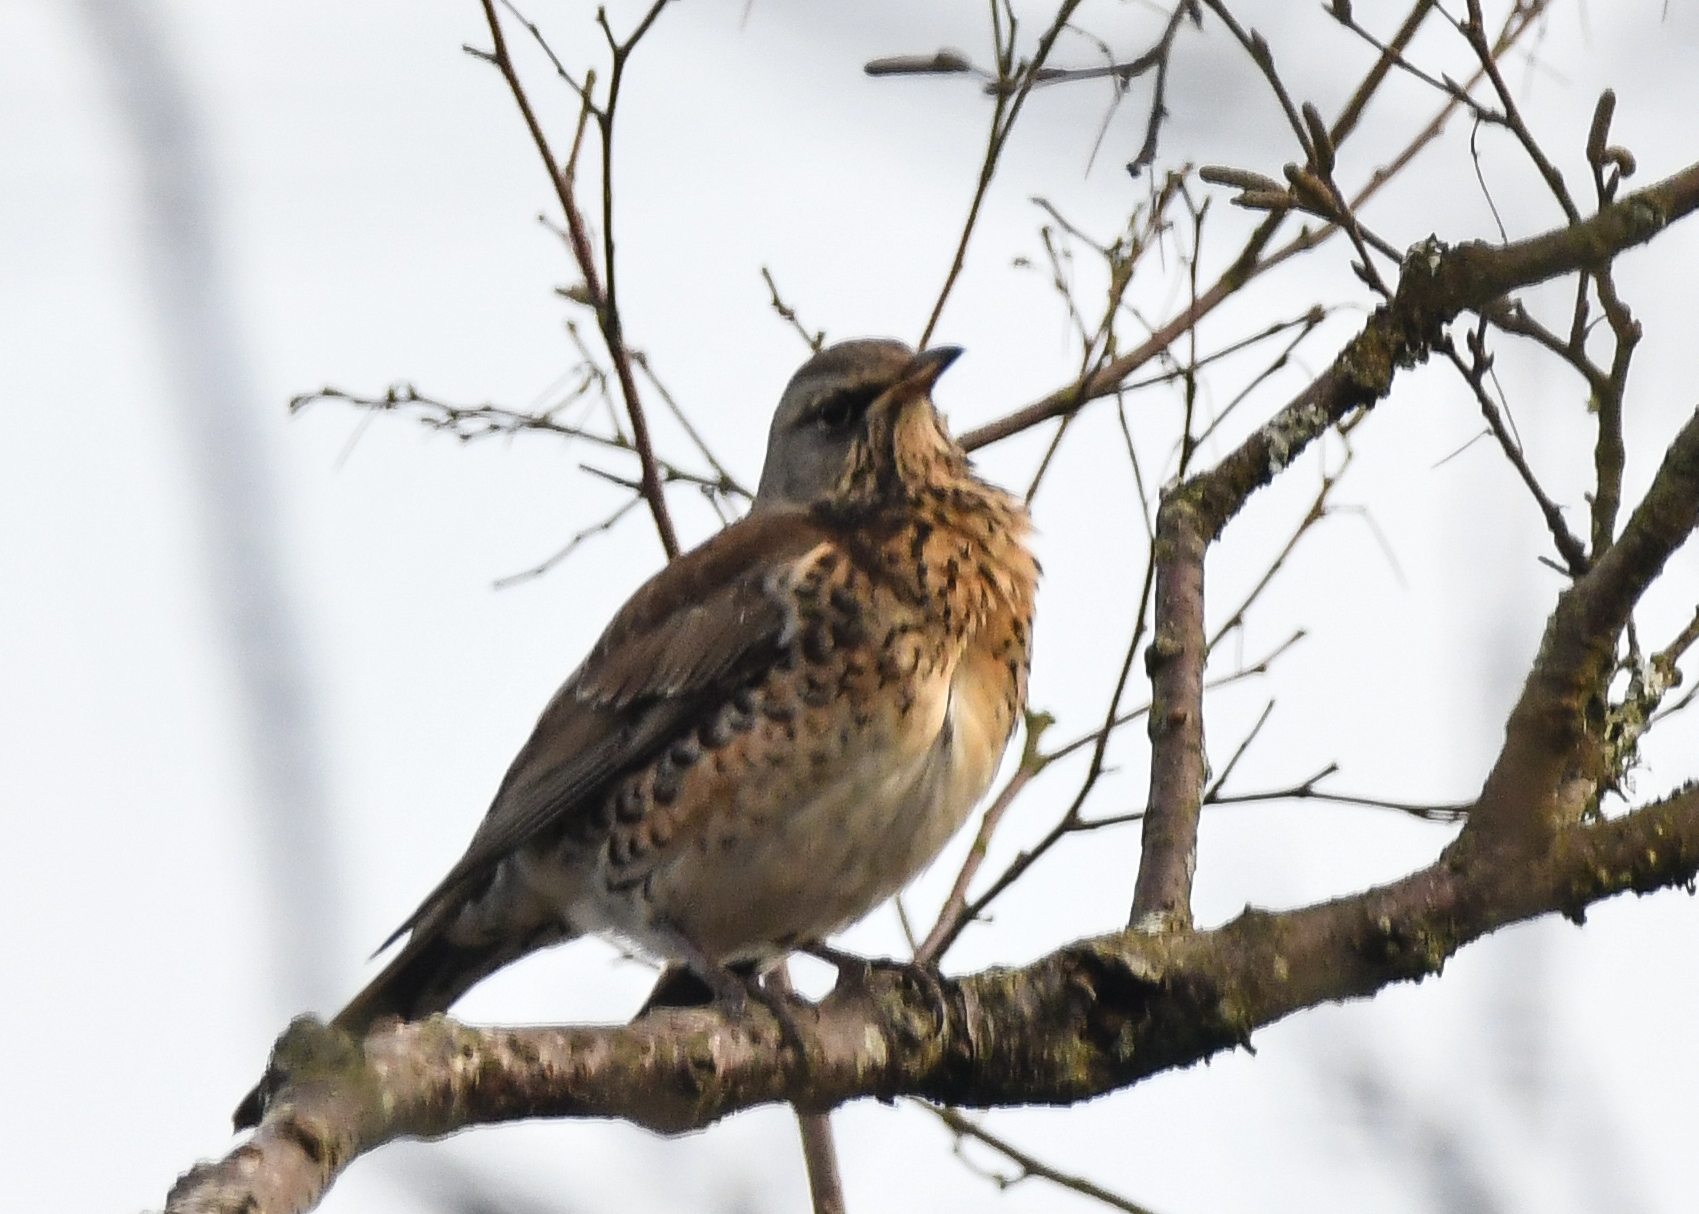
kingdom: Animalia
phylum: Chordata
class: Aves
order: Passeriformes
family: Turdidae
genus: Turdus
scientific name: Turdus pilaris
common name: Fieldfare
